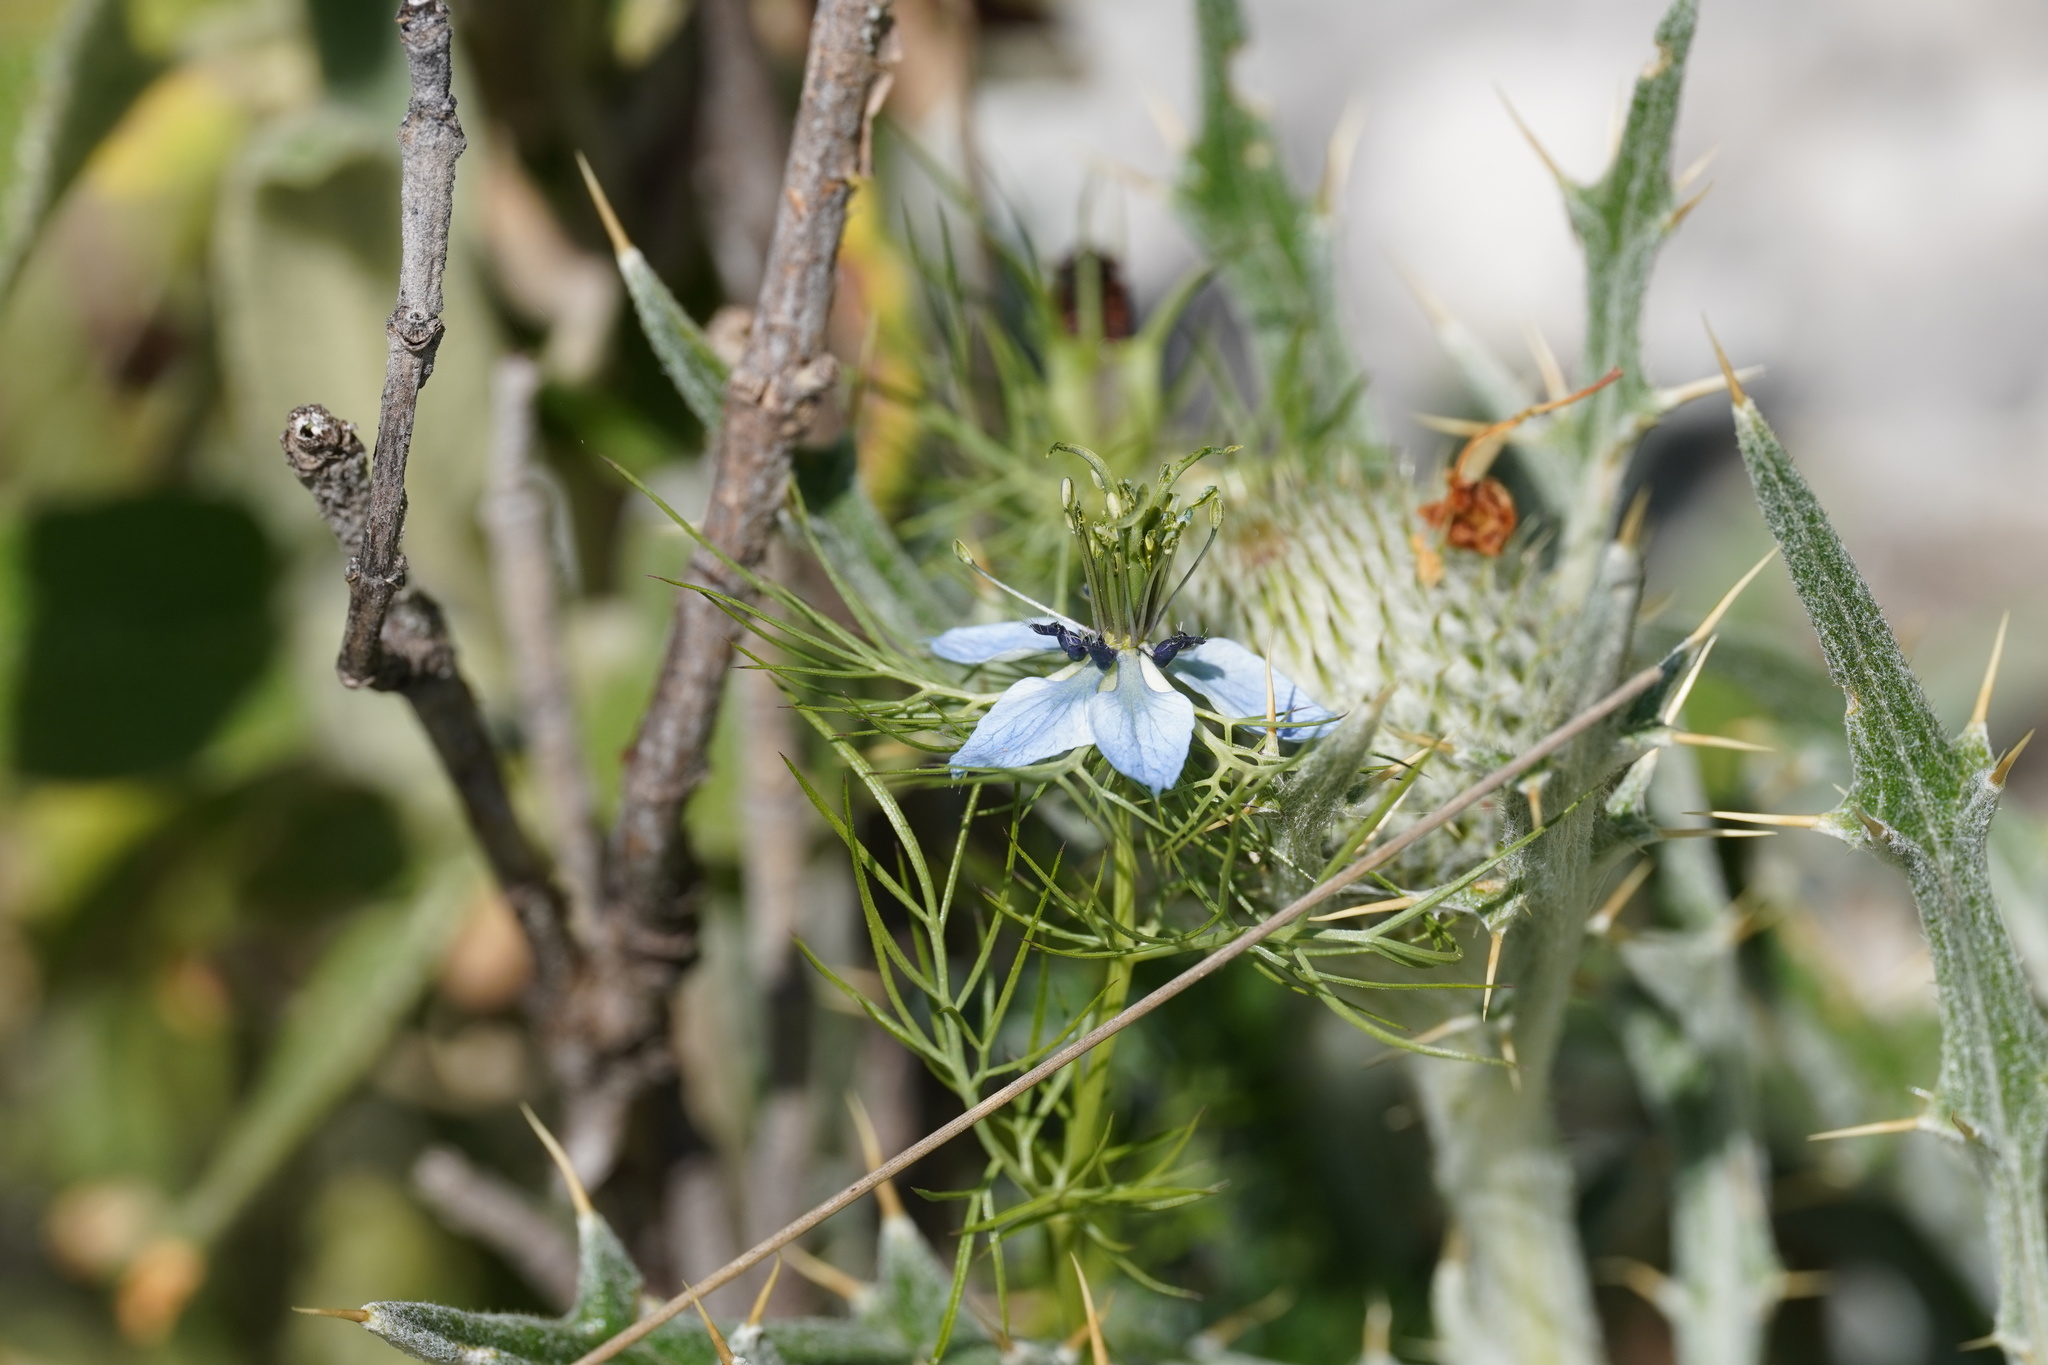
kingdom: Plantae
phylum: Tracheophyta
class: Magnoliopsida
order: Ranunculales
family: Ranunculaceae
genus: Nigella
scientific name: Nigella damascena
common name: Love-in-a-mist
